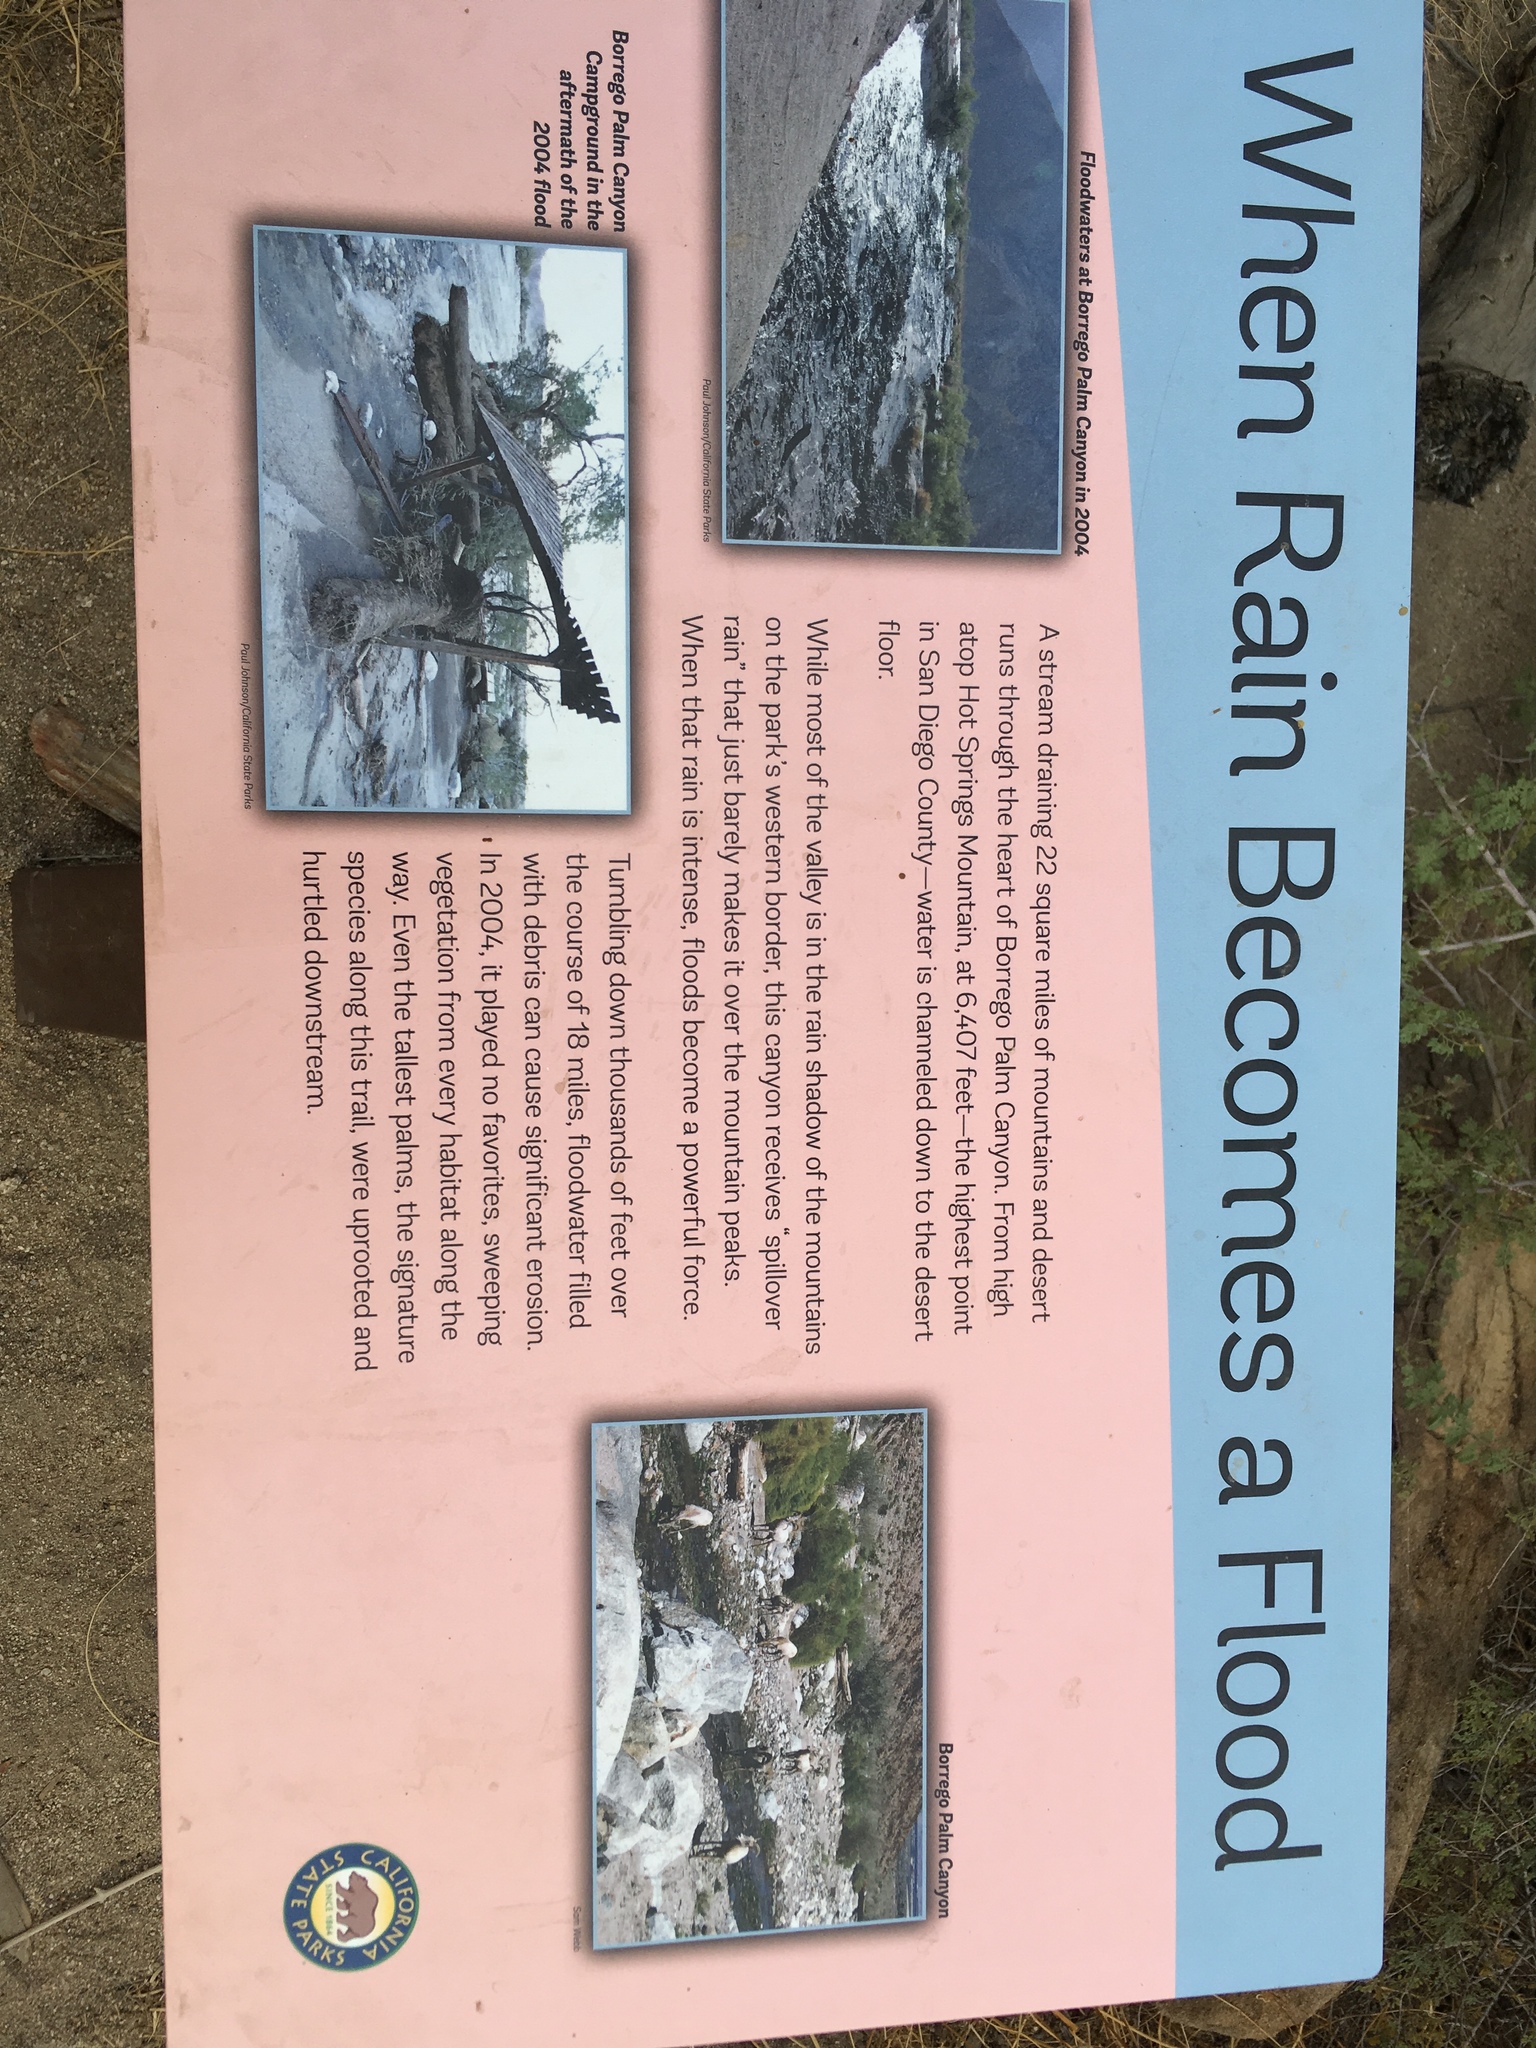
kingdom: Plantae
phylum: Tracheophyta
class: Magnoliopsida
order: Lamiales
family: Lamiaceae
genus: Condea
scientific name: Condea emoryi
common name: Chia
